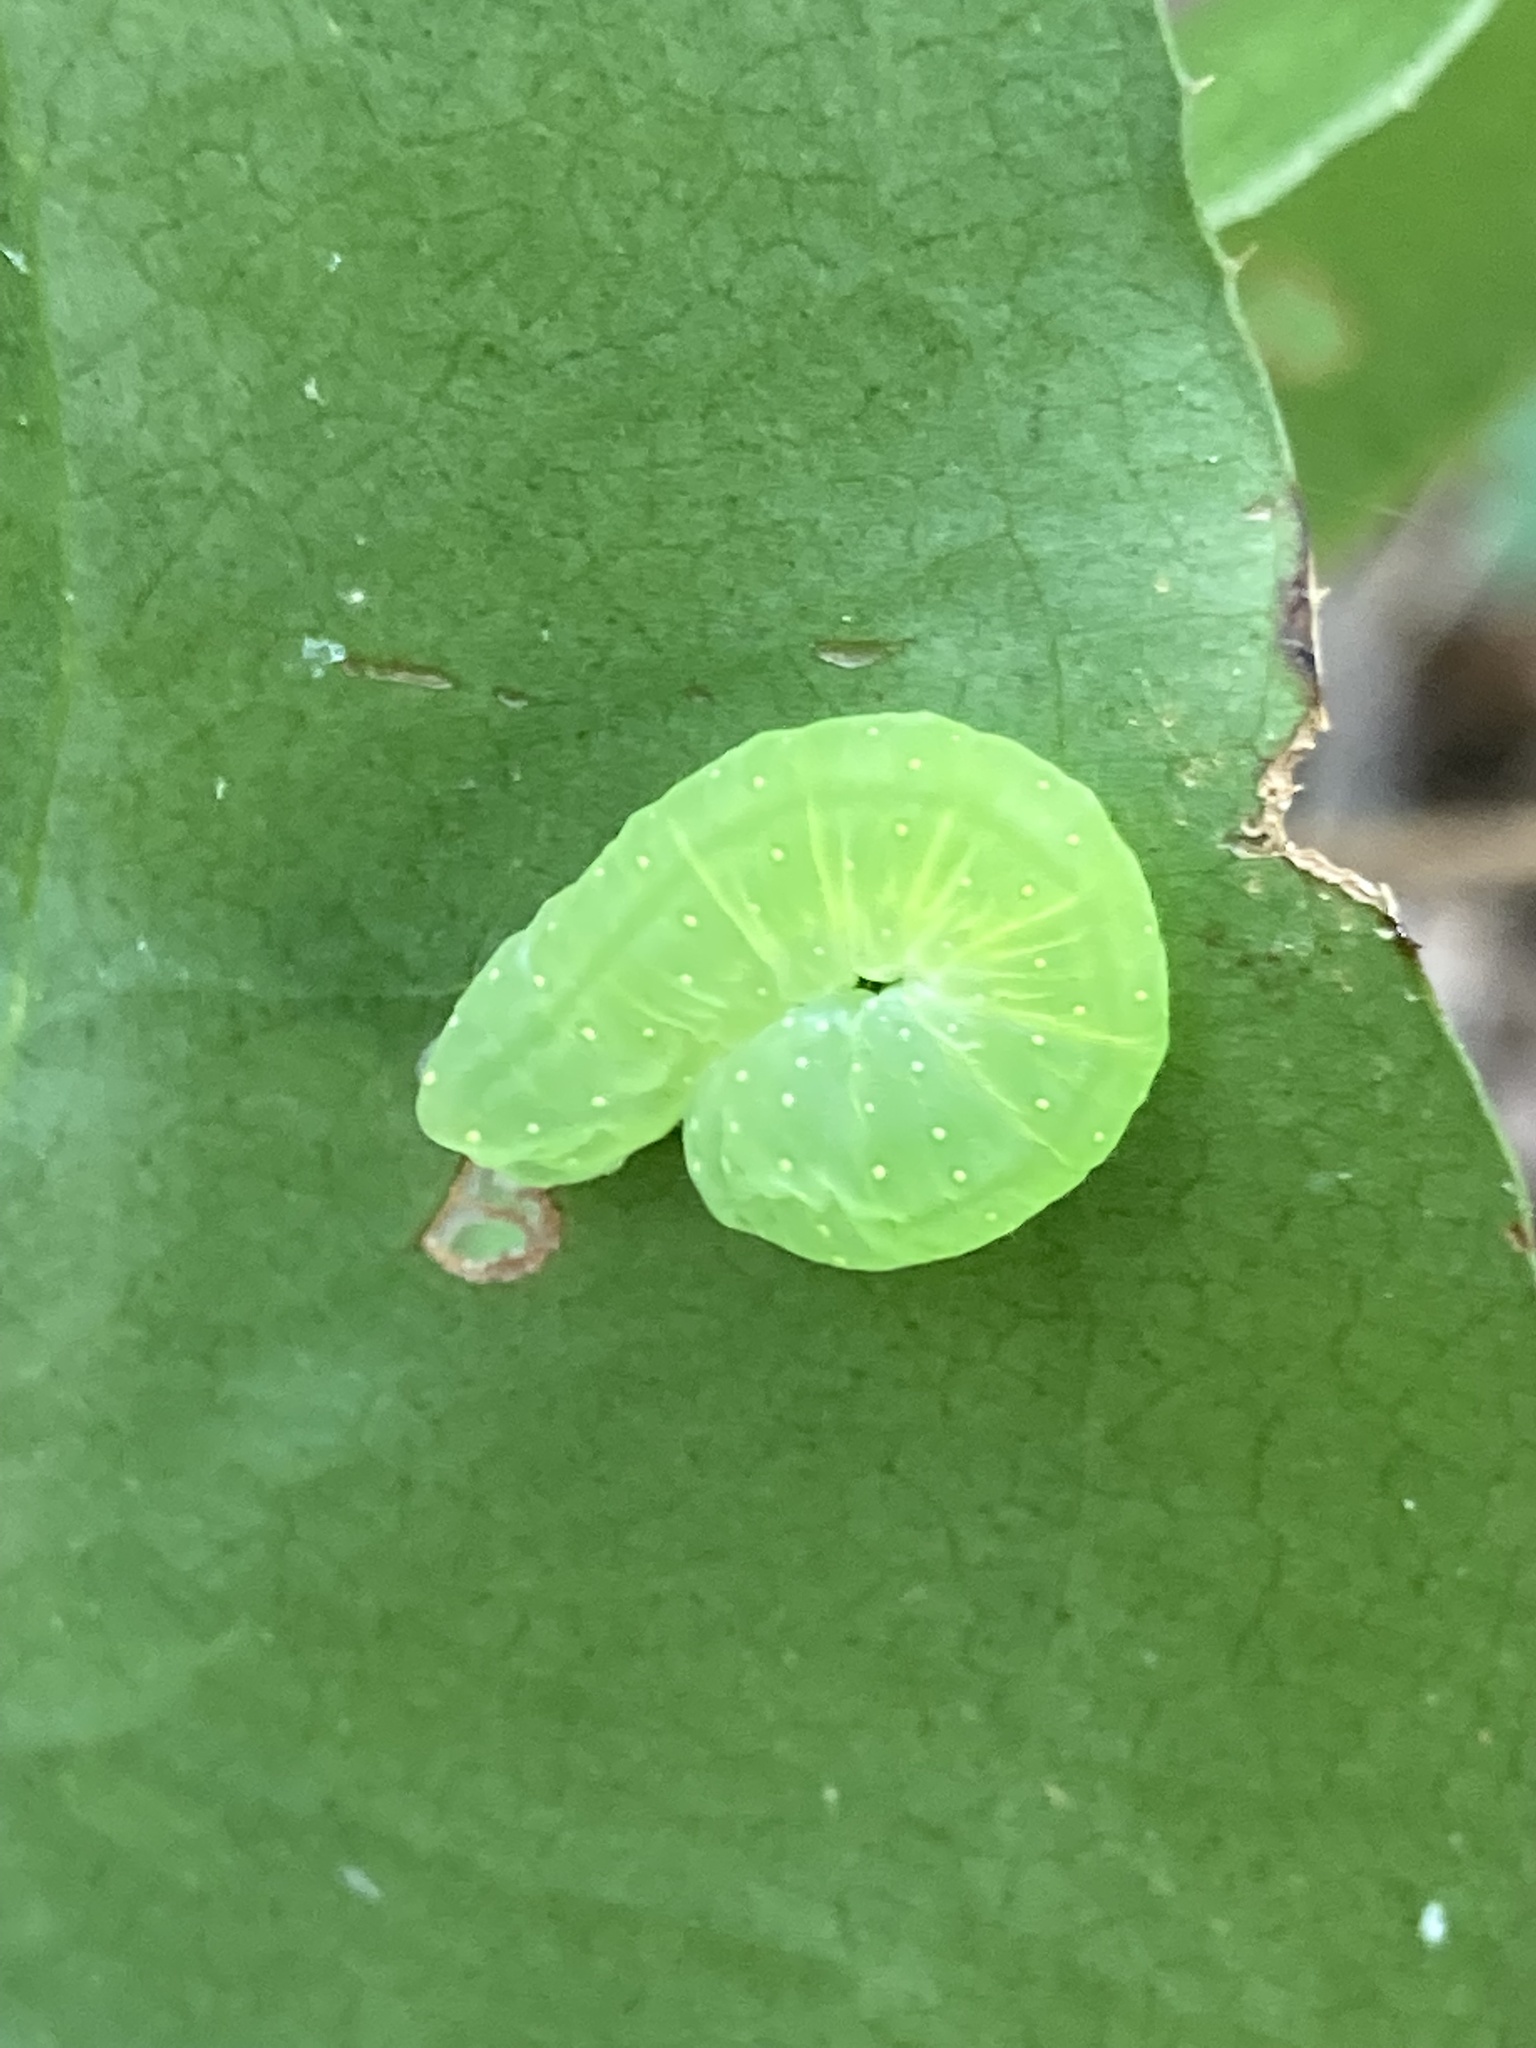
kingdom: Animalia
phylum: Arthropoda
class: Insecta
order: Lepidoptera
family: Noctuidae
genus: Phosphila
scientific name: Phosphila miselioides
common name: Spotted phosphila moth
